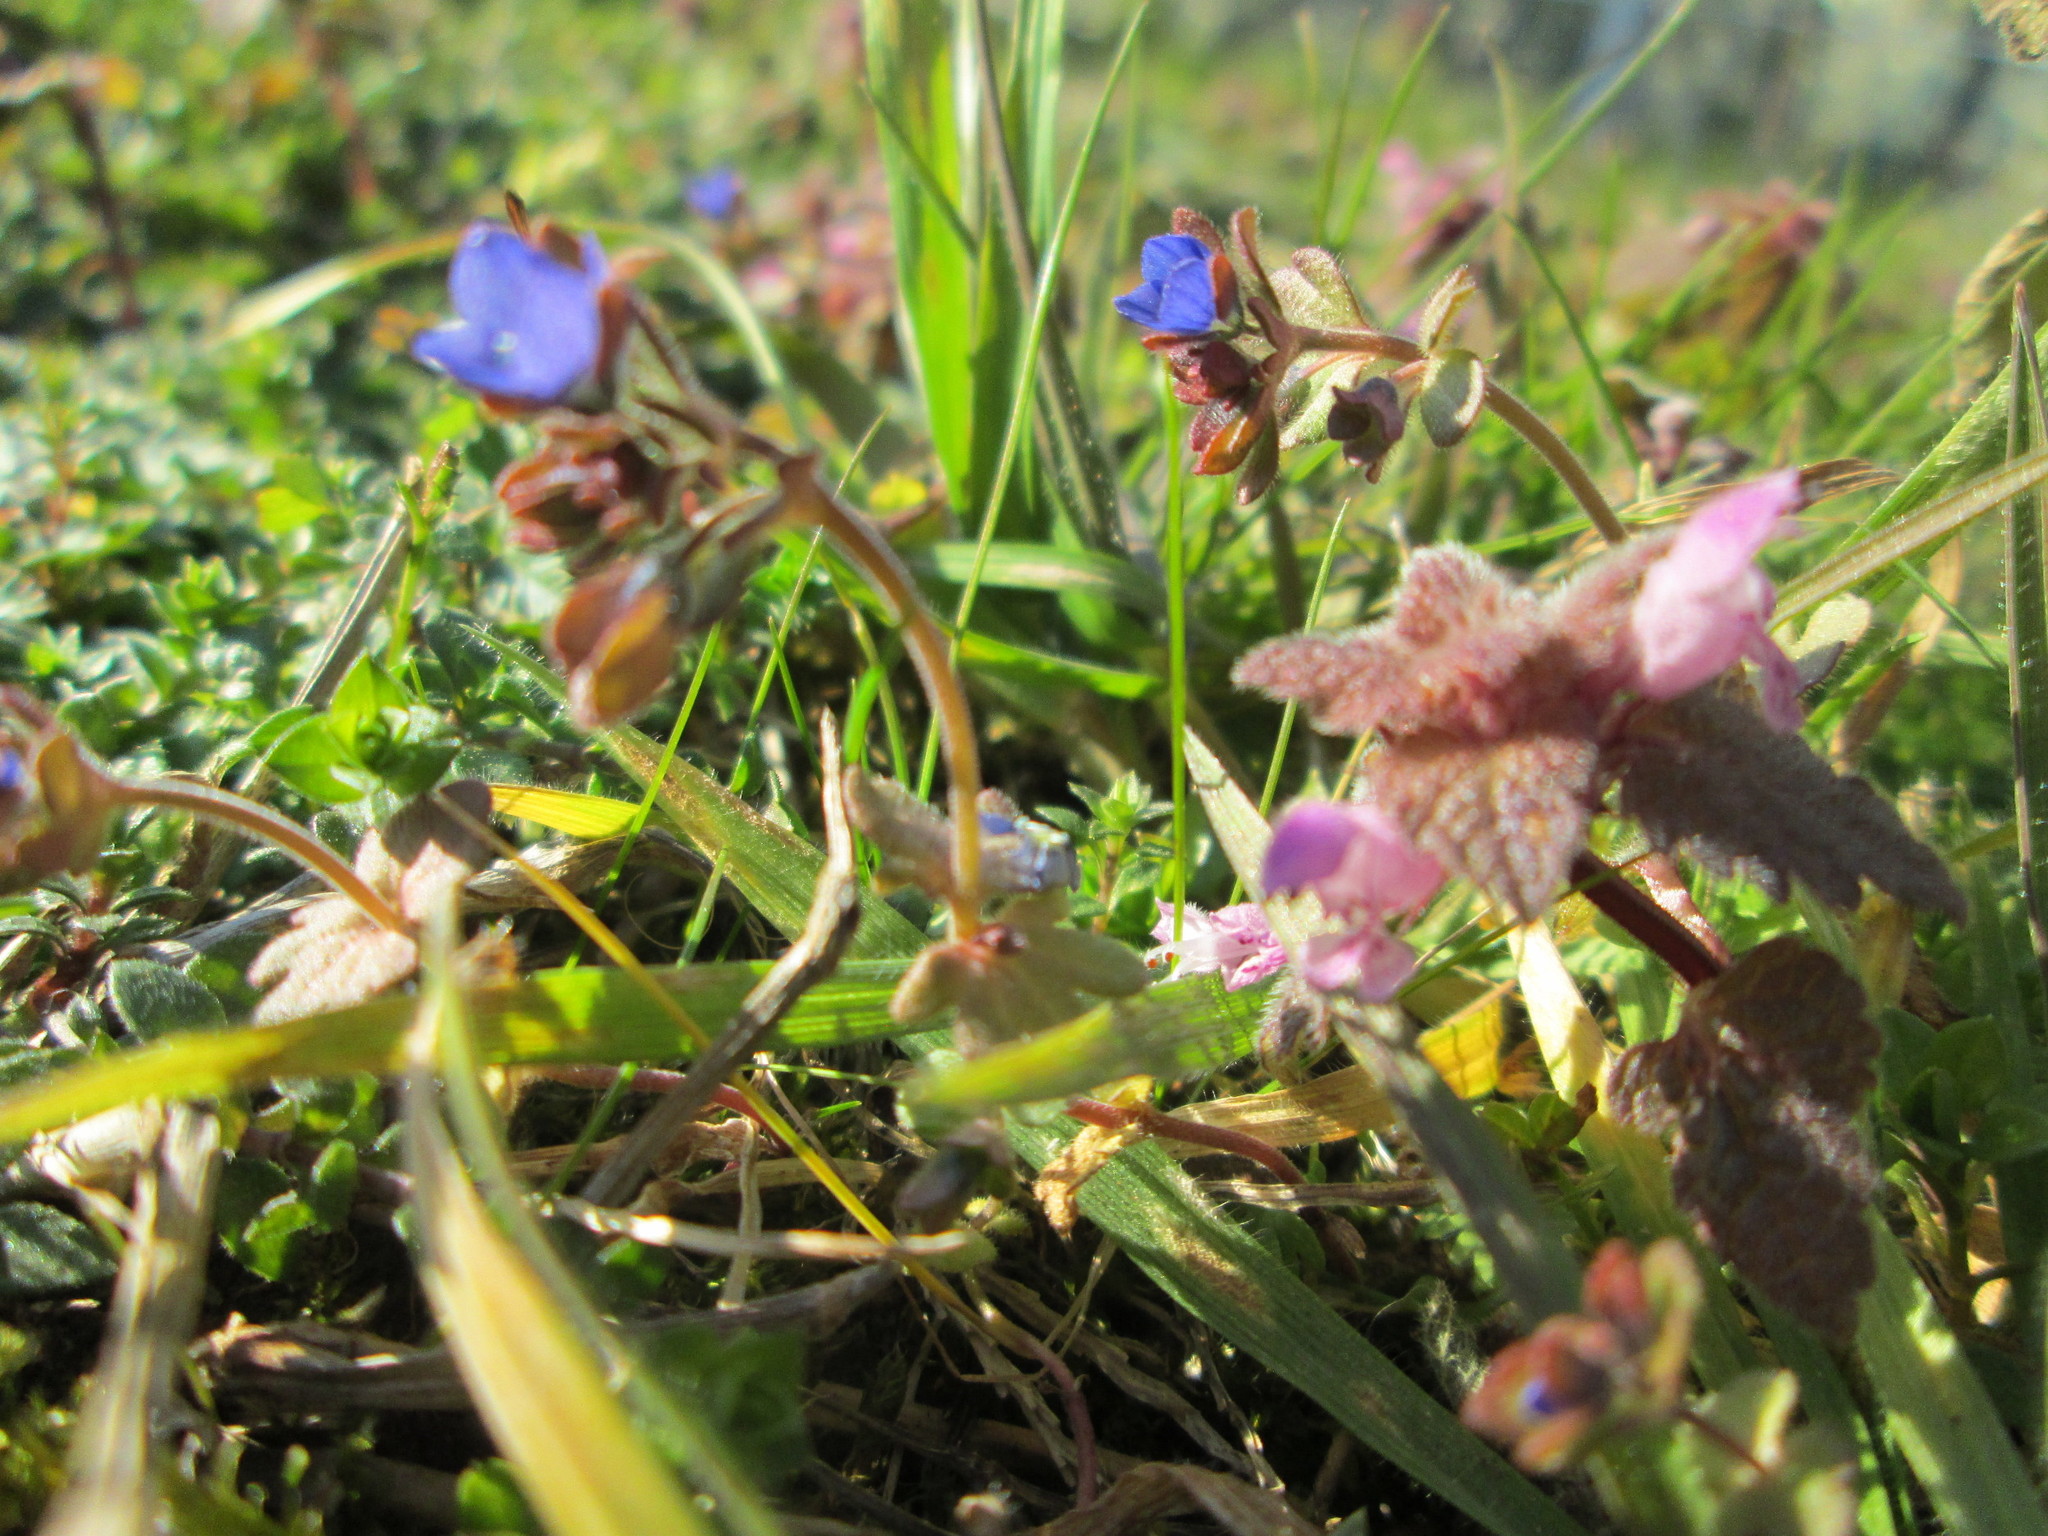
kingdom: Plantae
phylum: Tracheophyta
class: Magnoliopsida
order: Lamiales
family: Plantaginaceae
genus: Veronica
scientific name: Veronica triphyllos
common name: Fingered speedwell
